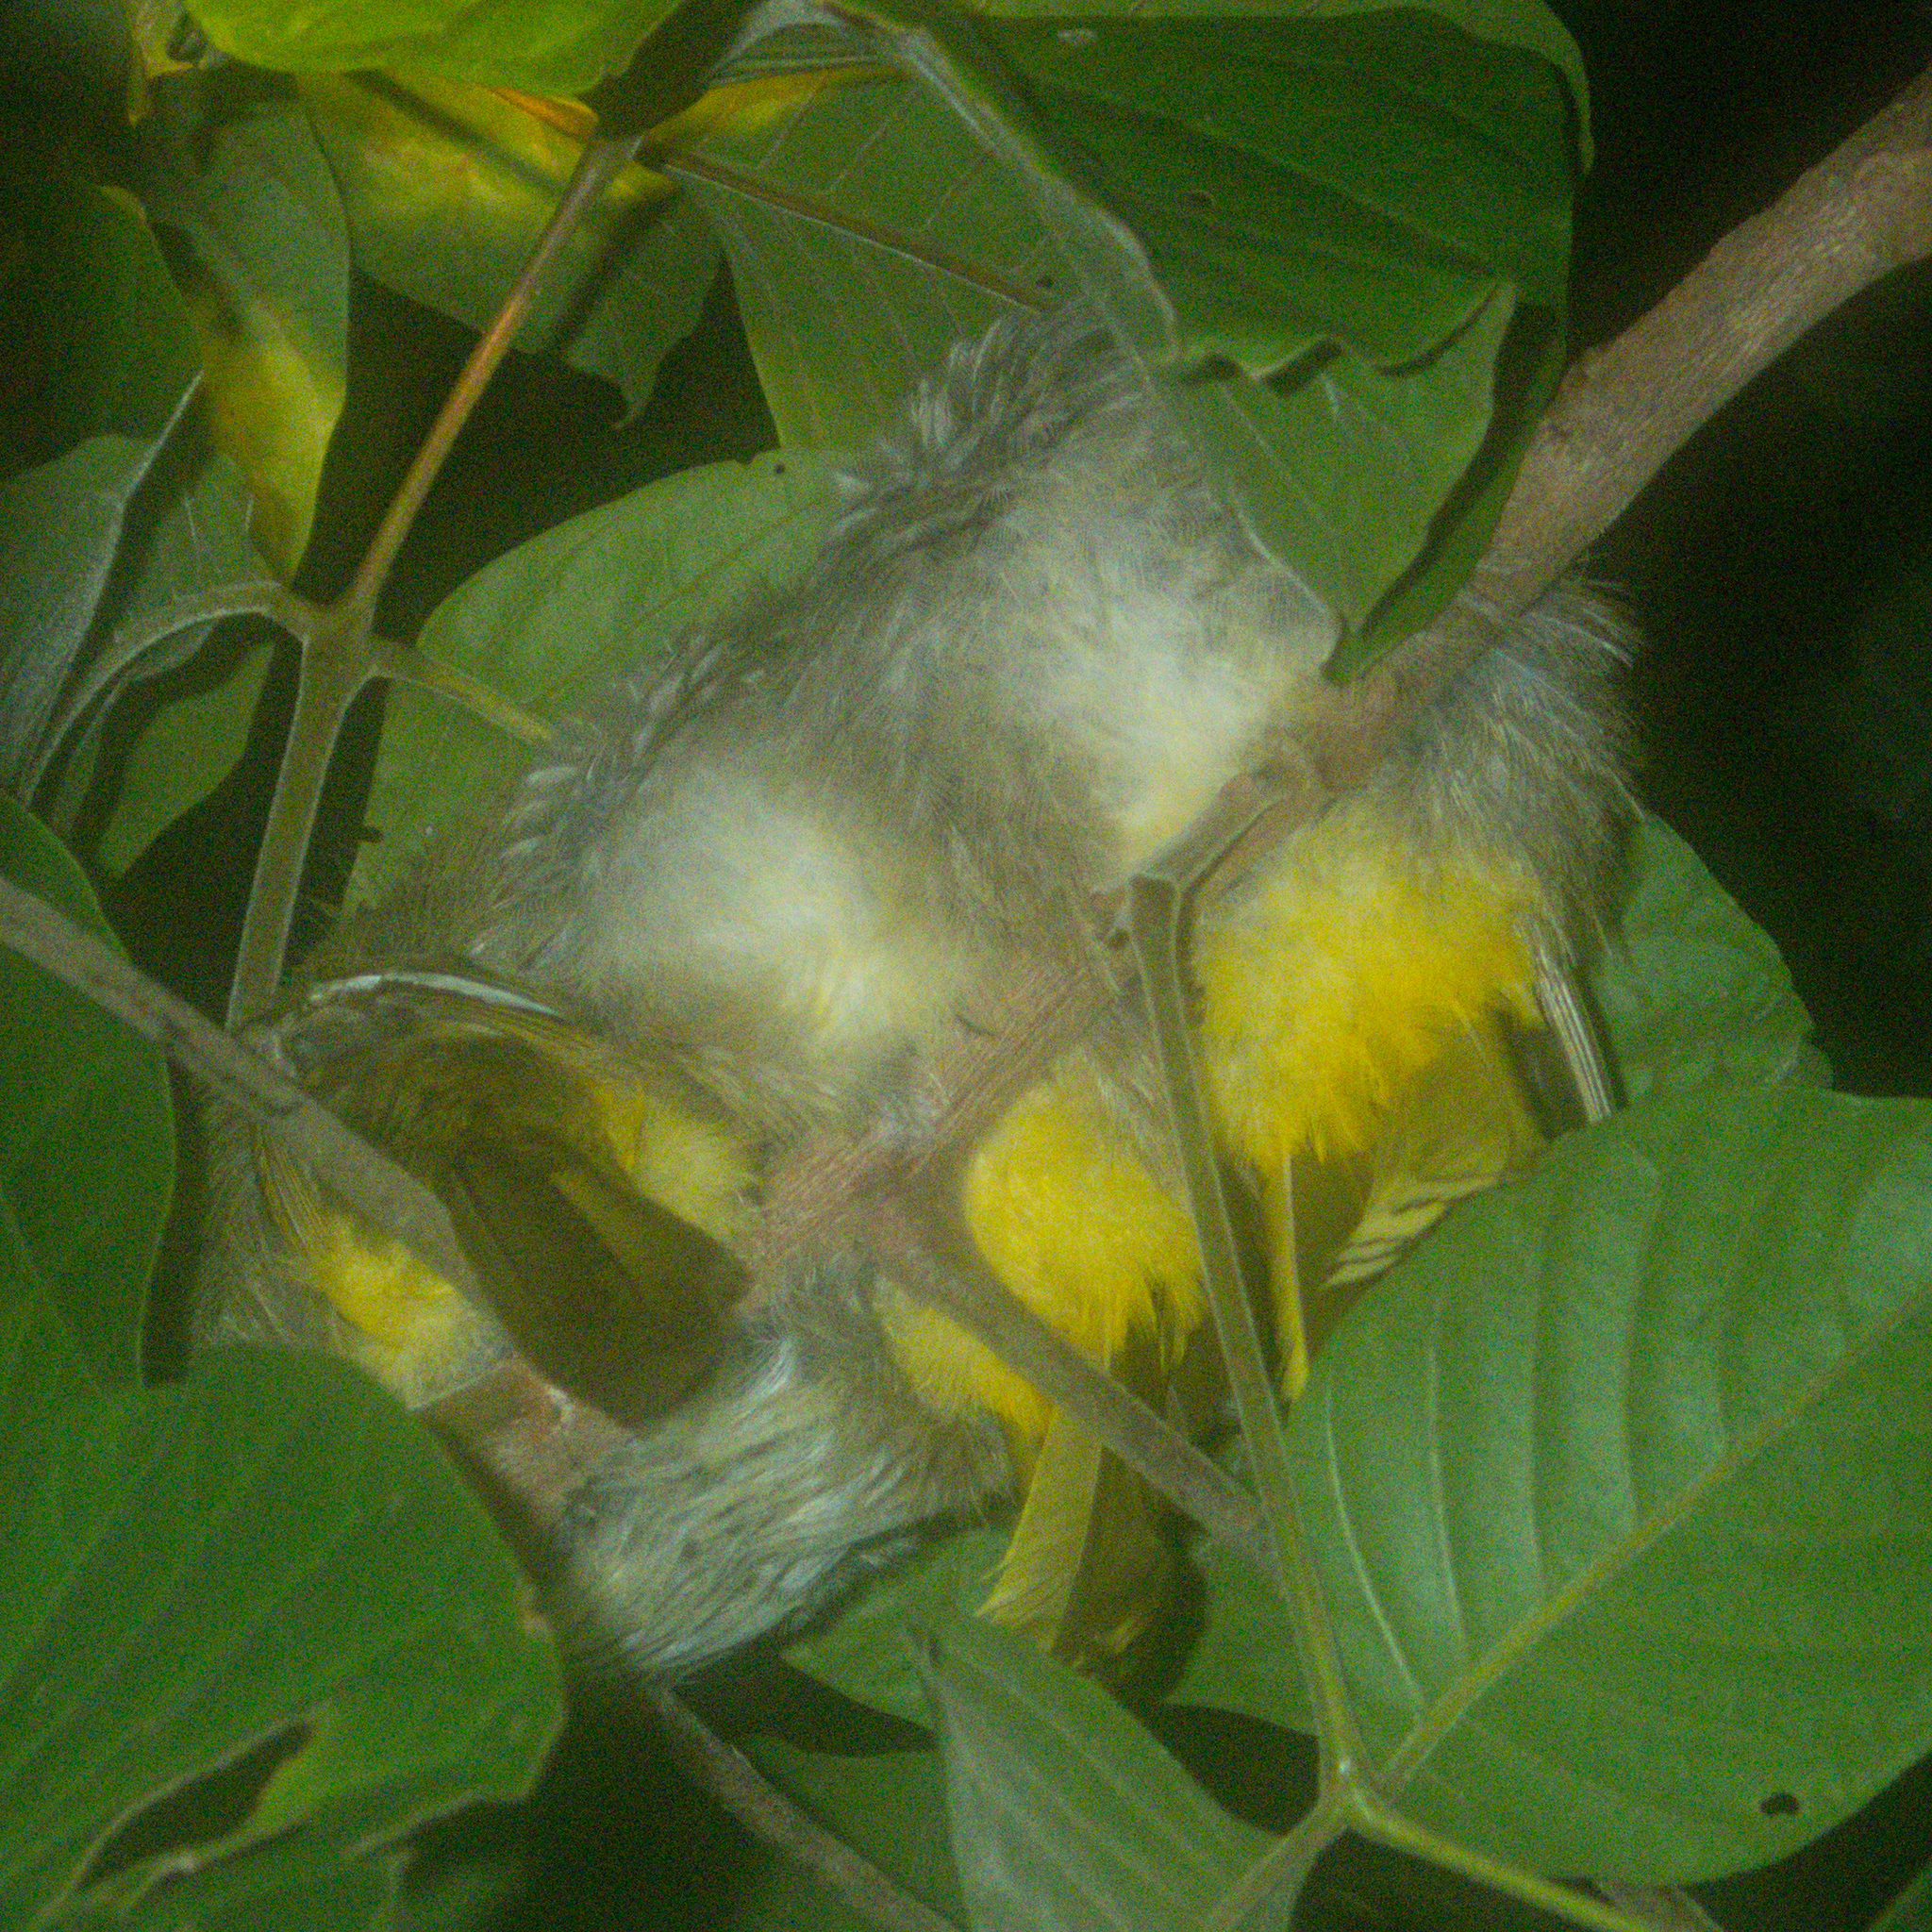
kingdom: Animalia
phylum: Chordata
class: Aves
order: Passeriformes
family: Pycnonotidae
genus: Pycnonotus
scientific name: Pycnonotus finlaysoni
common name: Stripe-throated bulbul
